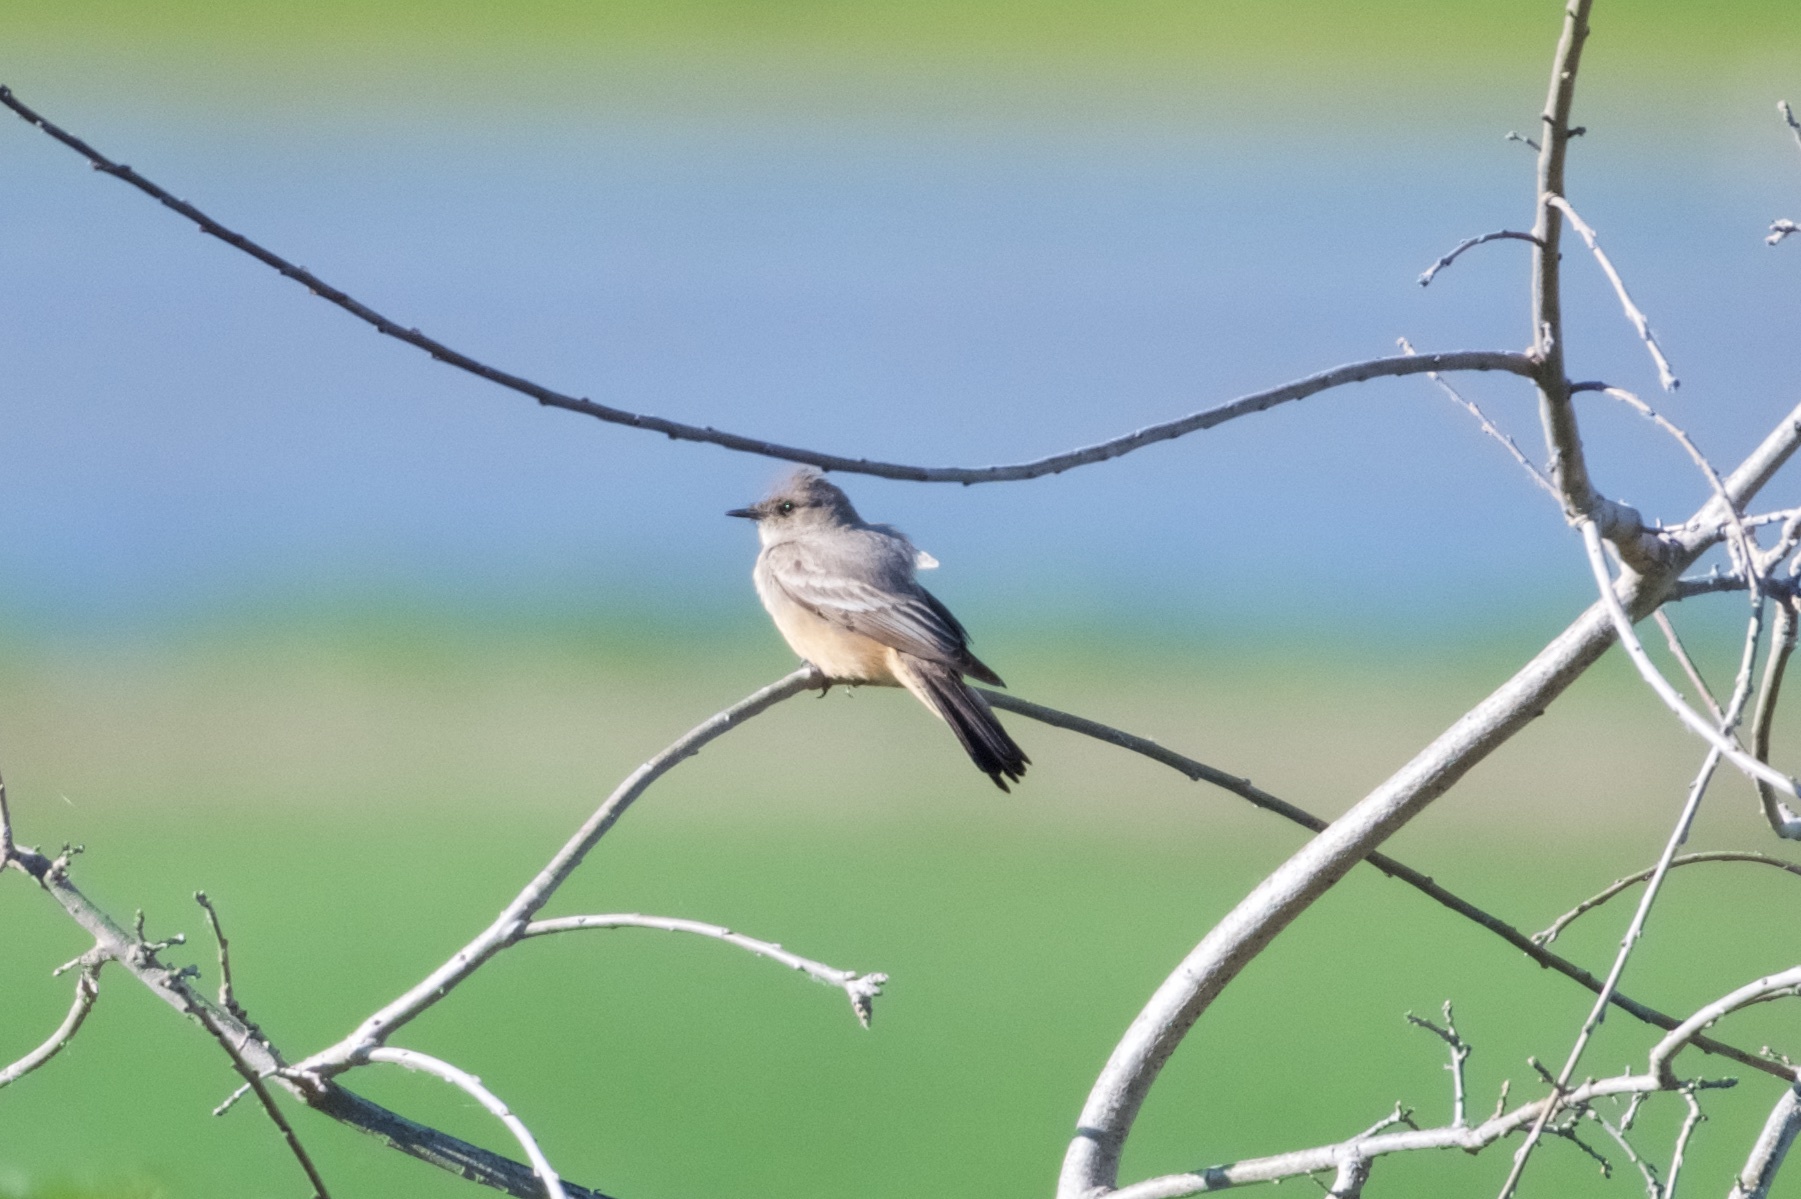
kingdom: Animalia
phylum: Chordata
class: Aves
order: Passeriformes
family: Tyrannidae
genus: Sayornis
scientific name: Sayornis saya
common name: Say's phoebe
